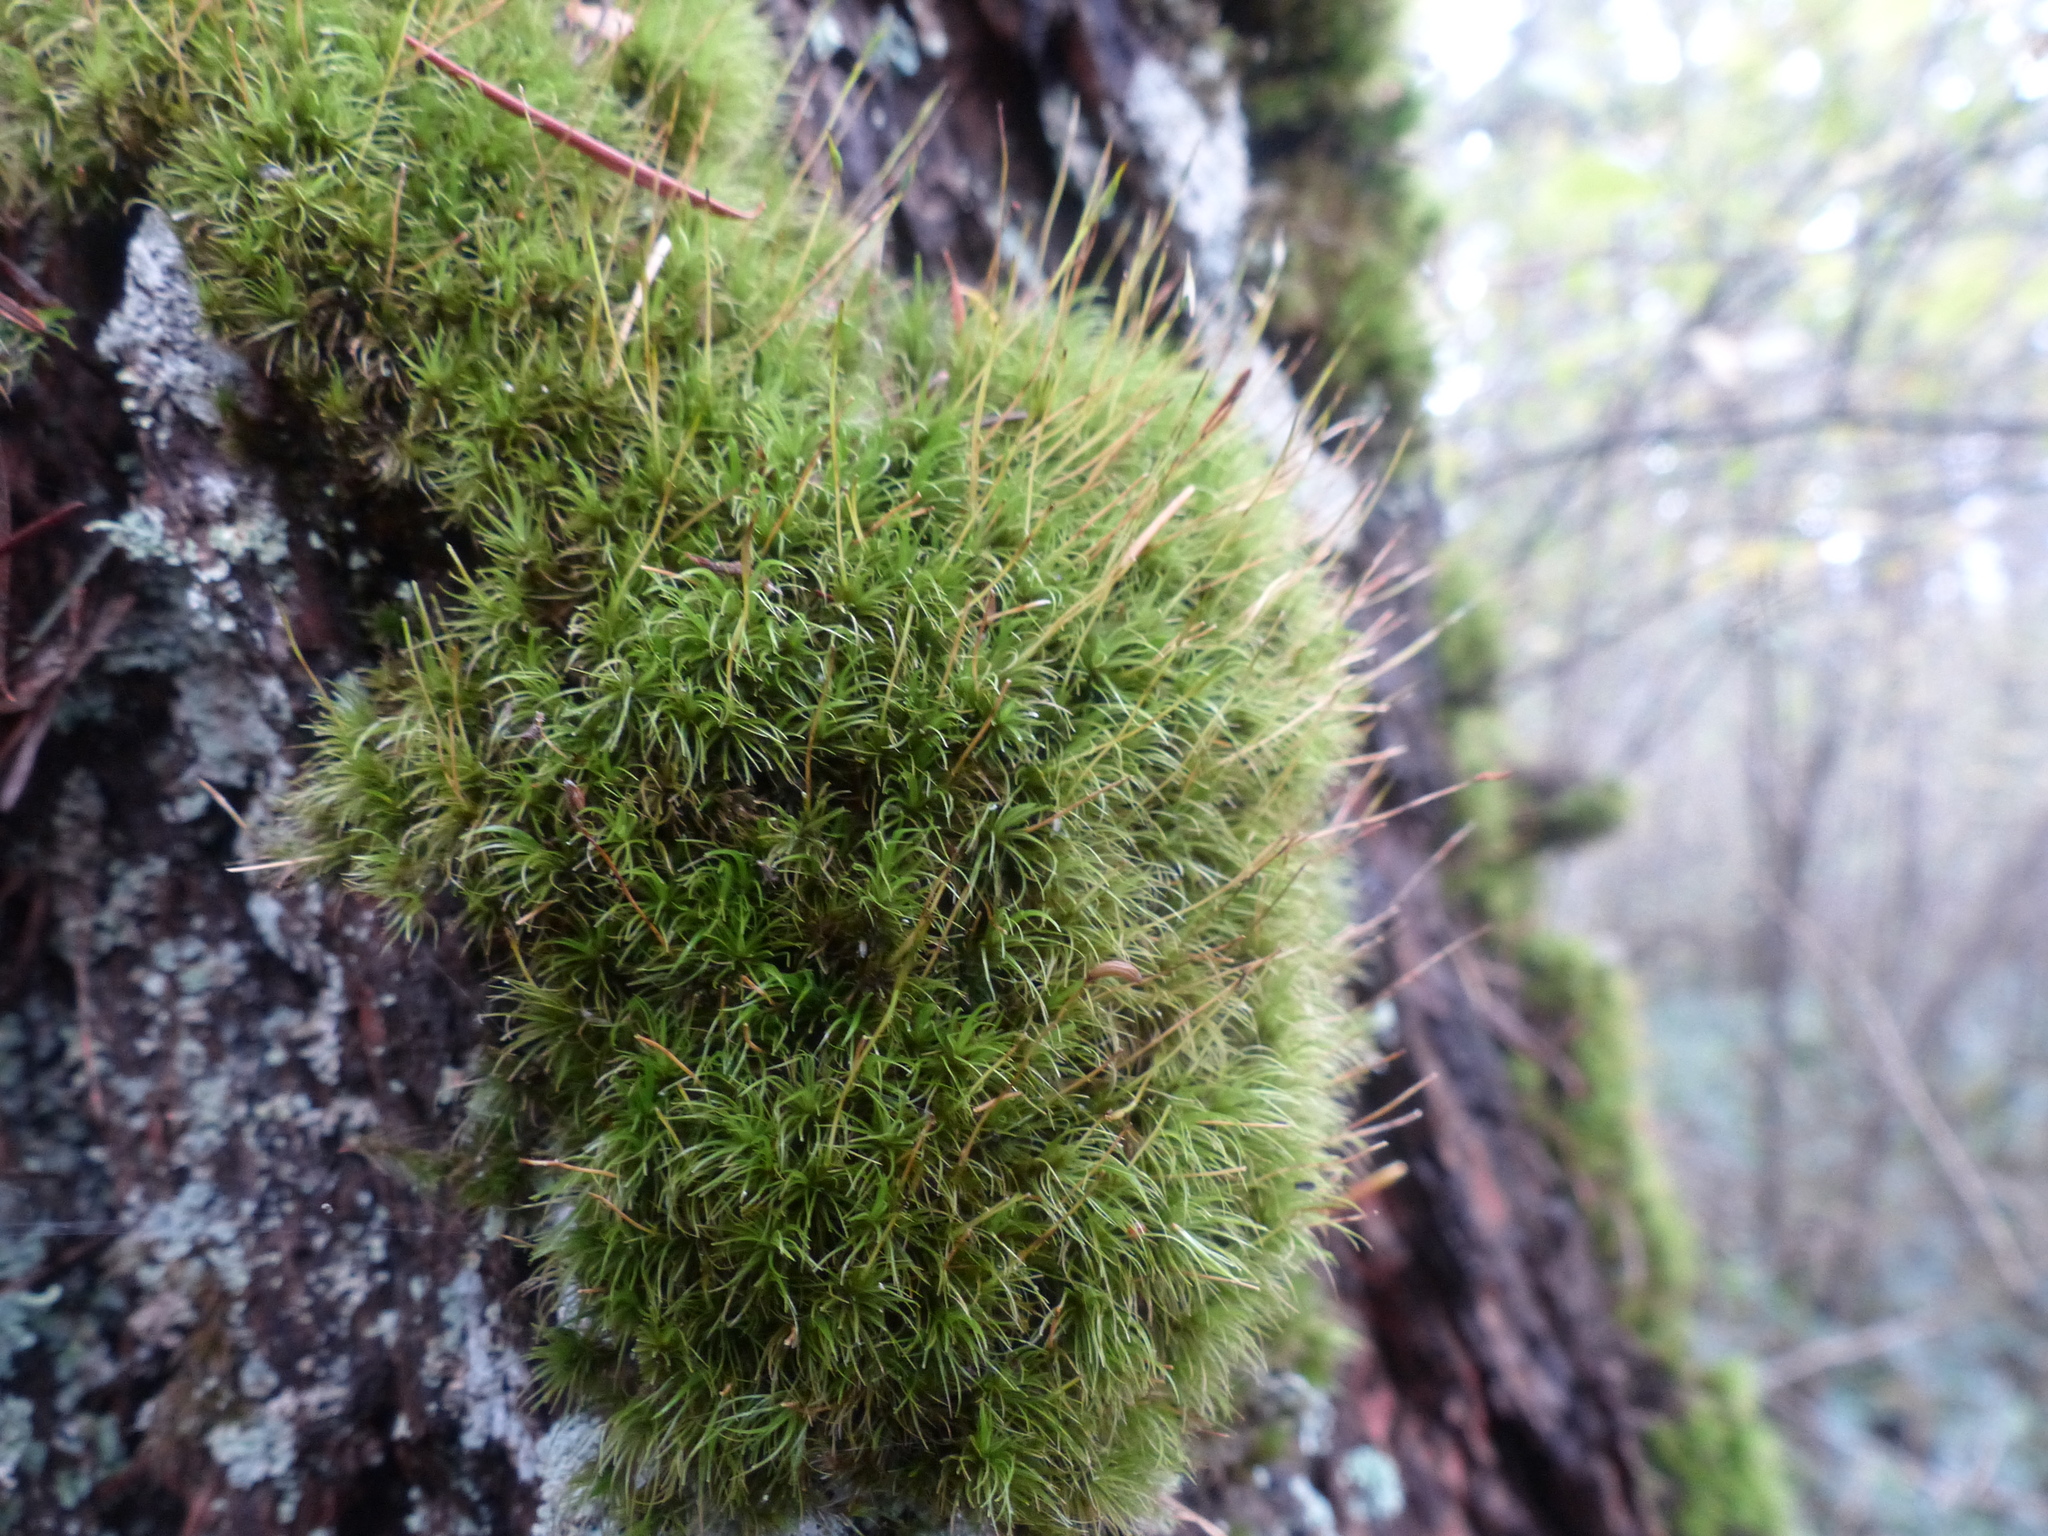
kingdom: Plantae
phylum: Bryophyta
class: Bryopsida
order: Dicranales
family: Dicranaceae
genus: Dicranum
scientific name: Dicranum fuscescens
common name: Curly heron's-bill moss
